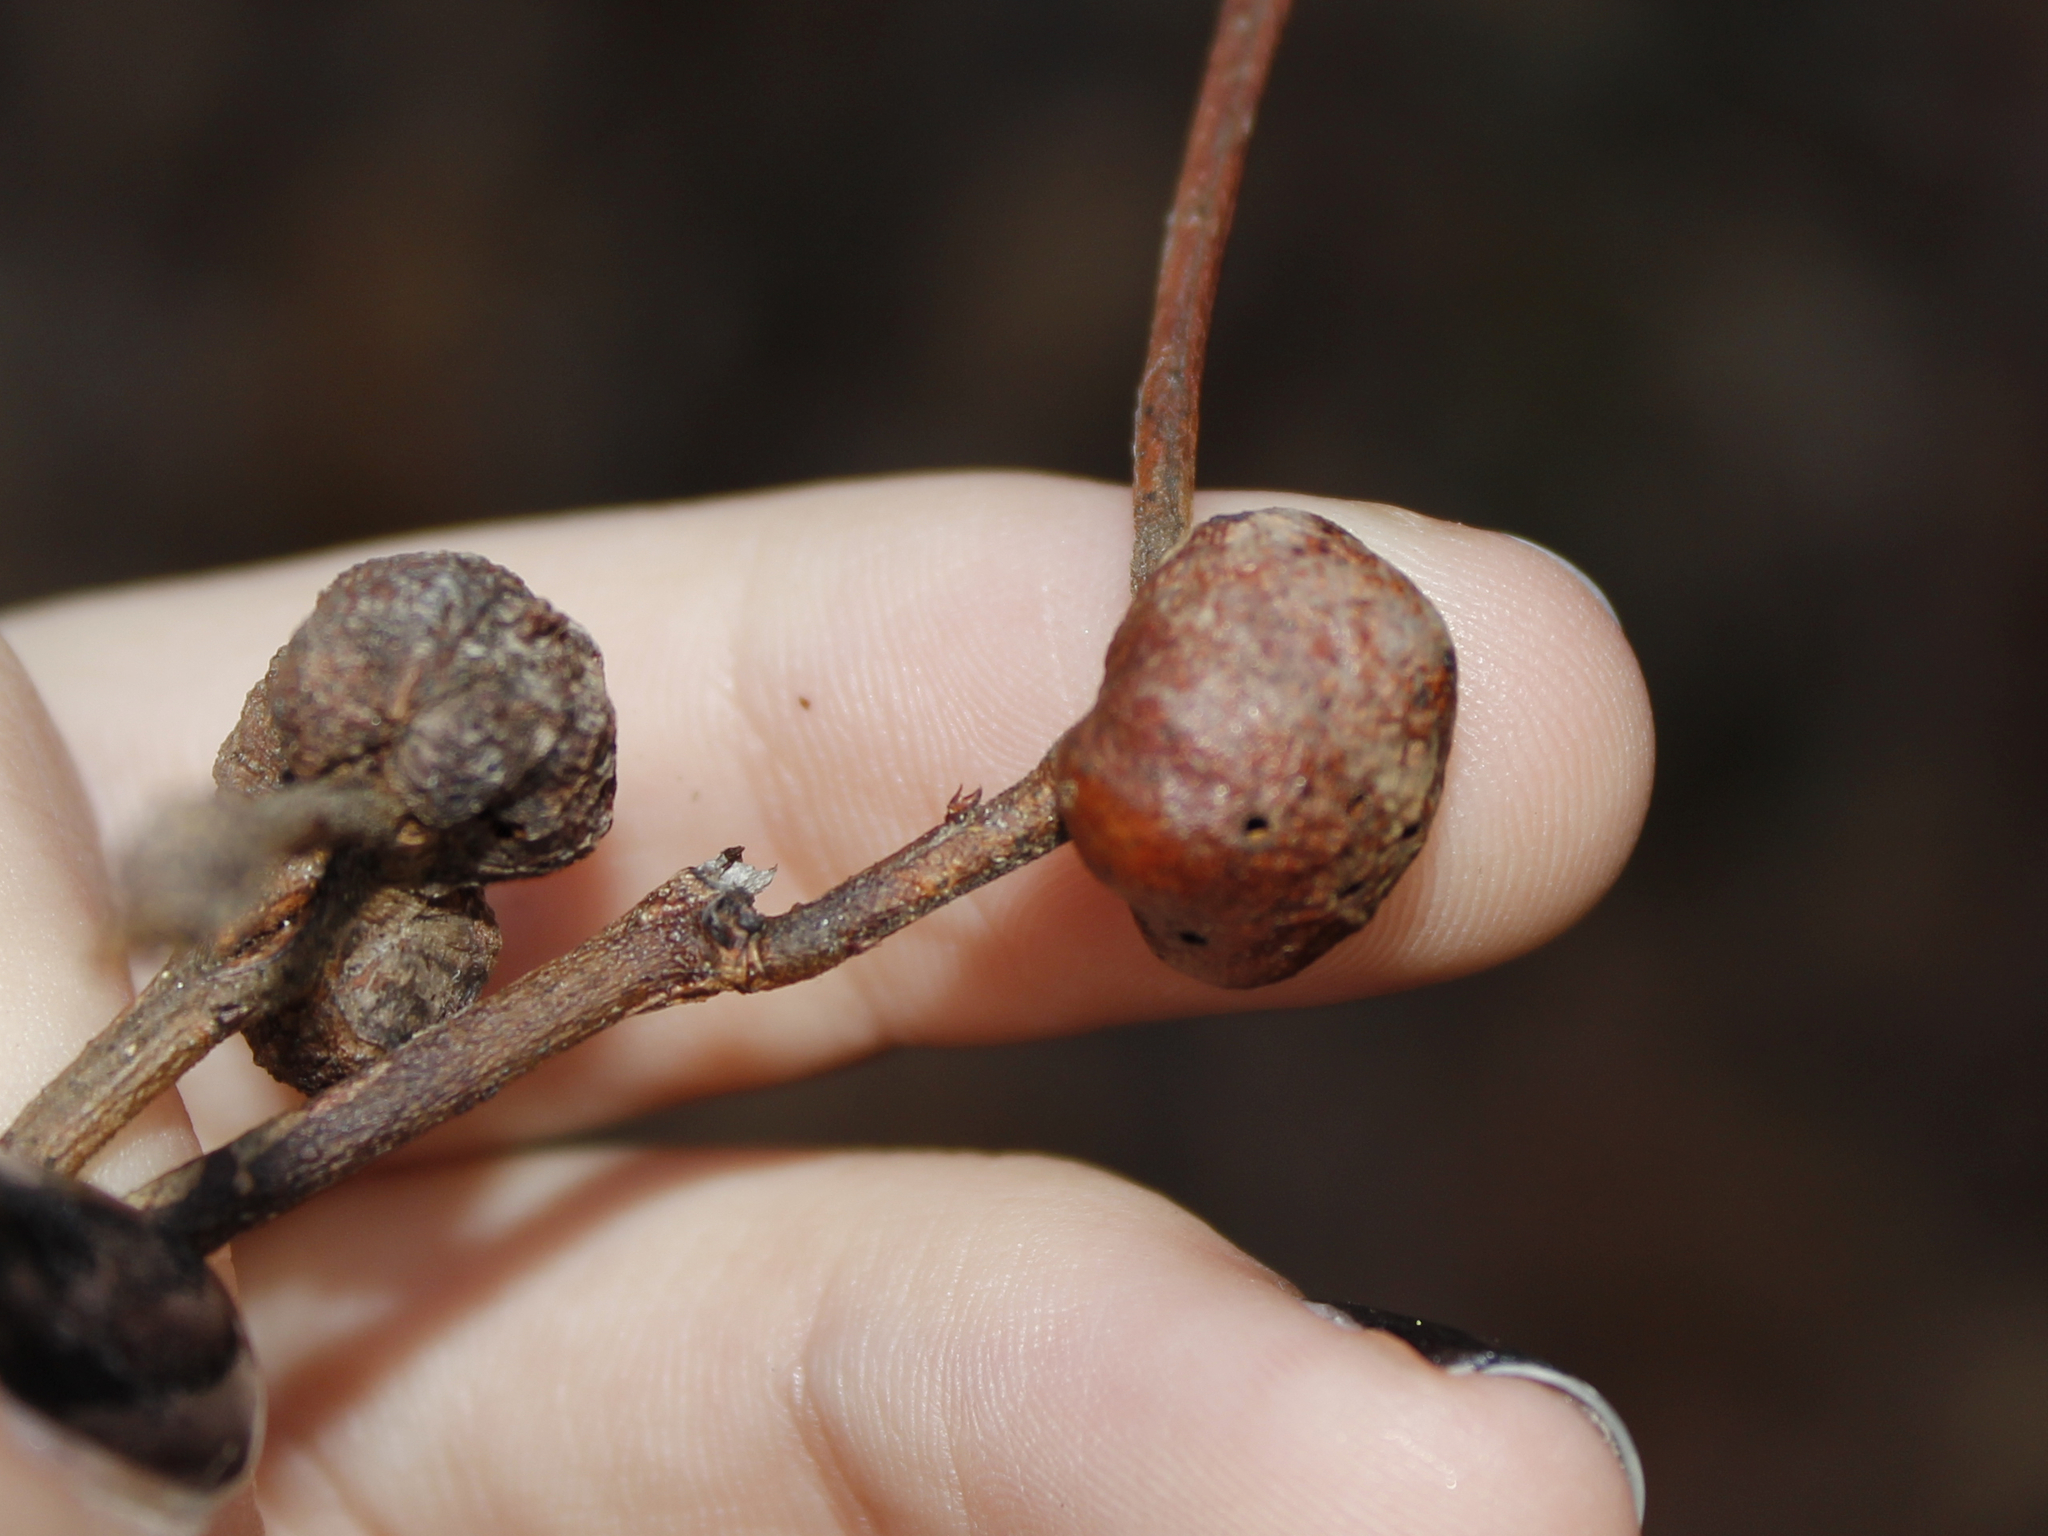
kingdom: Animalia
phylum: Arthropoda
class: Insecta
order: Hymenoptera
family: Pteromalidae
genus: Hemadas
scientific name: Hemadas nubilipennis
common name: Blueberry stem gall wasp
